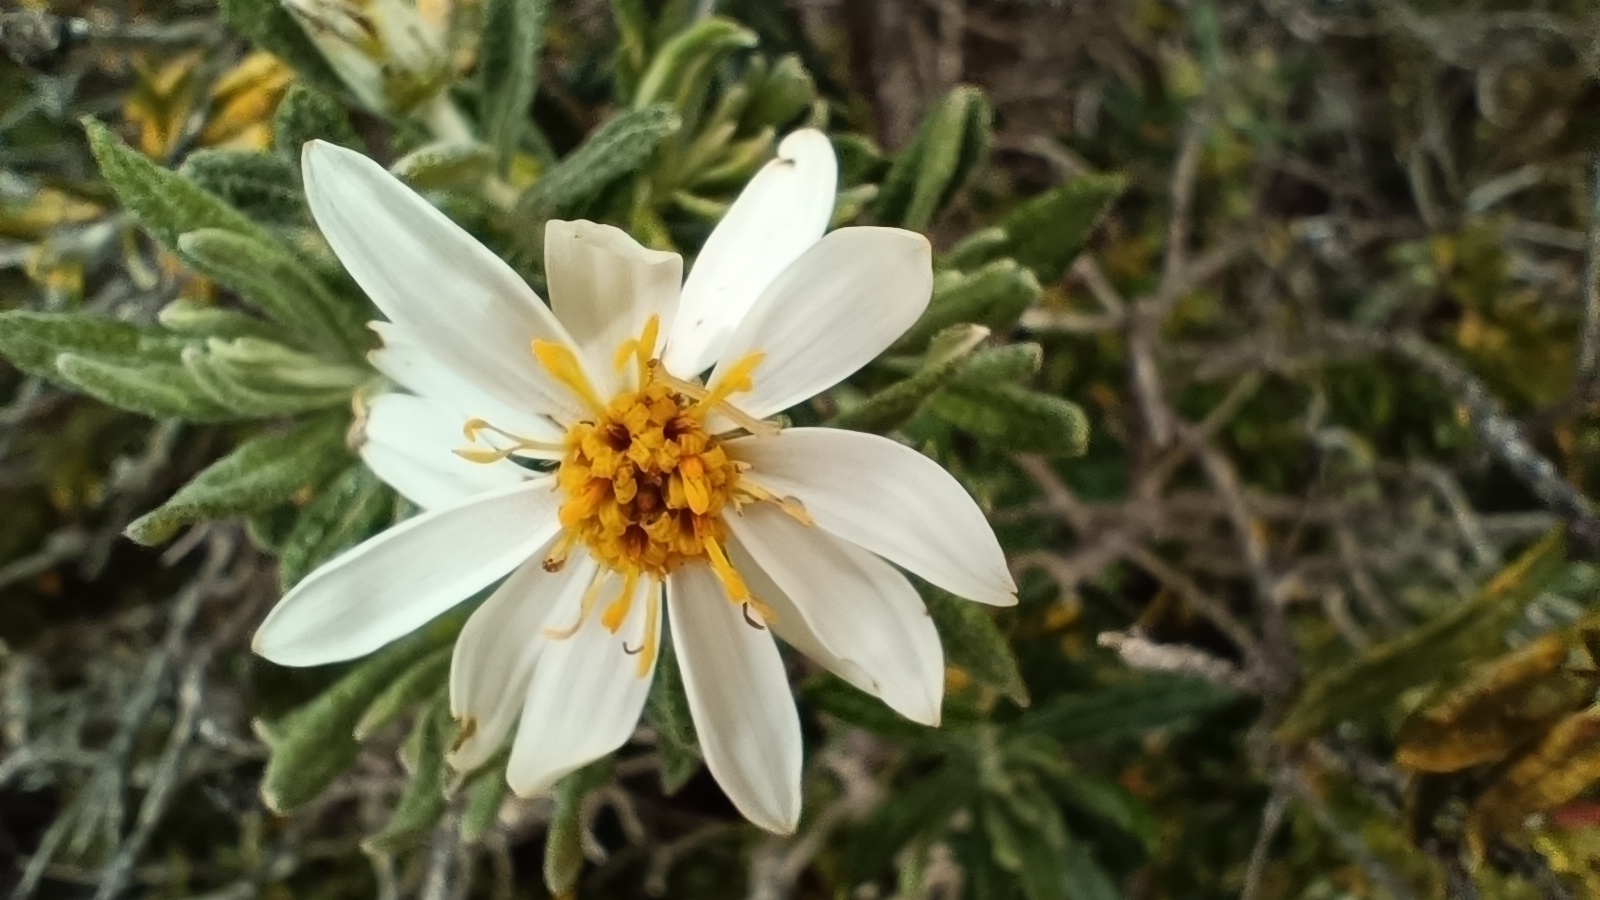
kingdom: Plantae
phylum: Tracheophyta
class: Magnoliopsida
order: Asterales
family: Asteraceae
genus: Chiliotrichum
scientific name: Chiliotrichum diffusum
